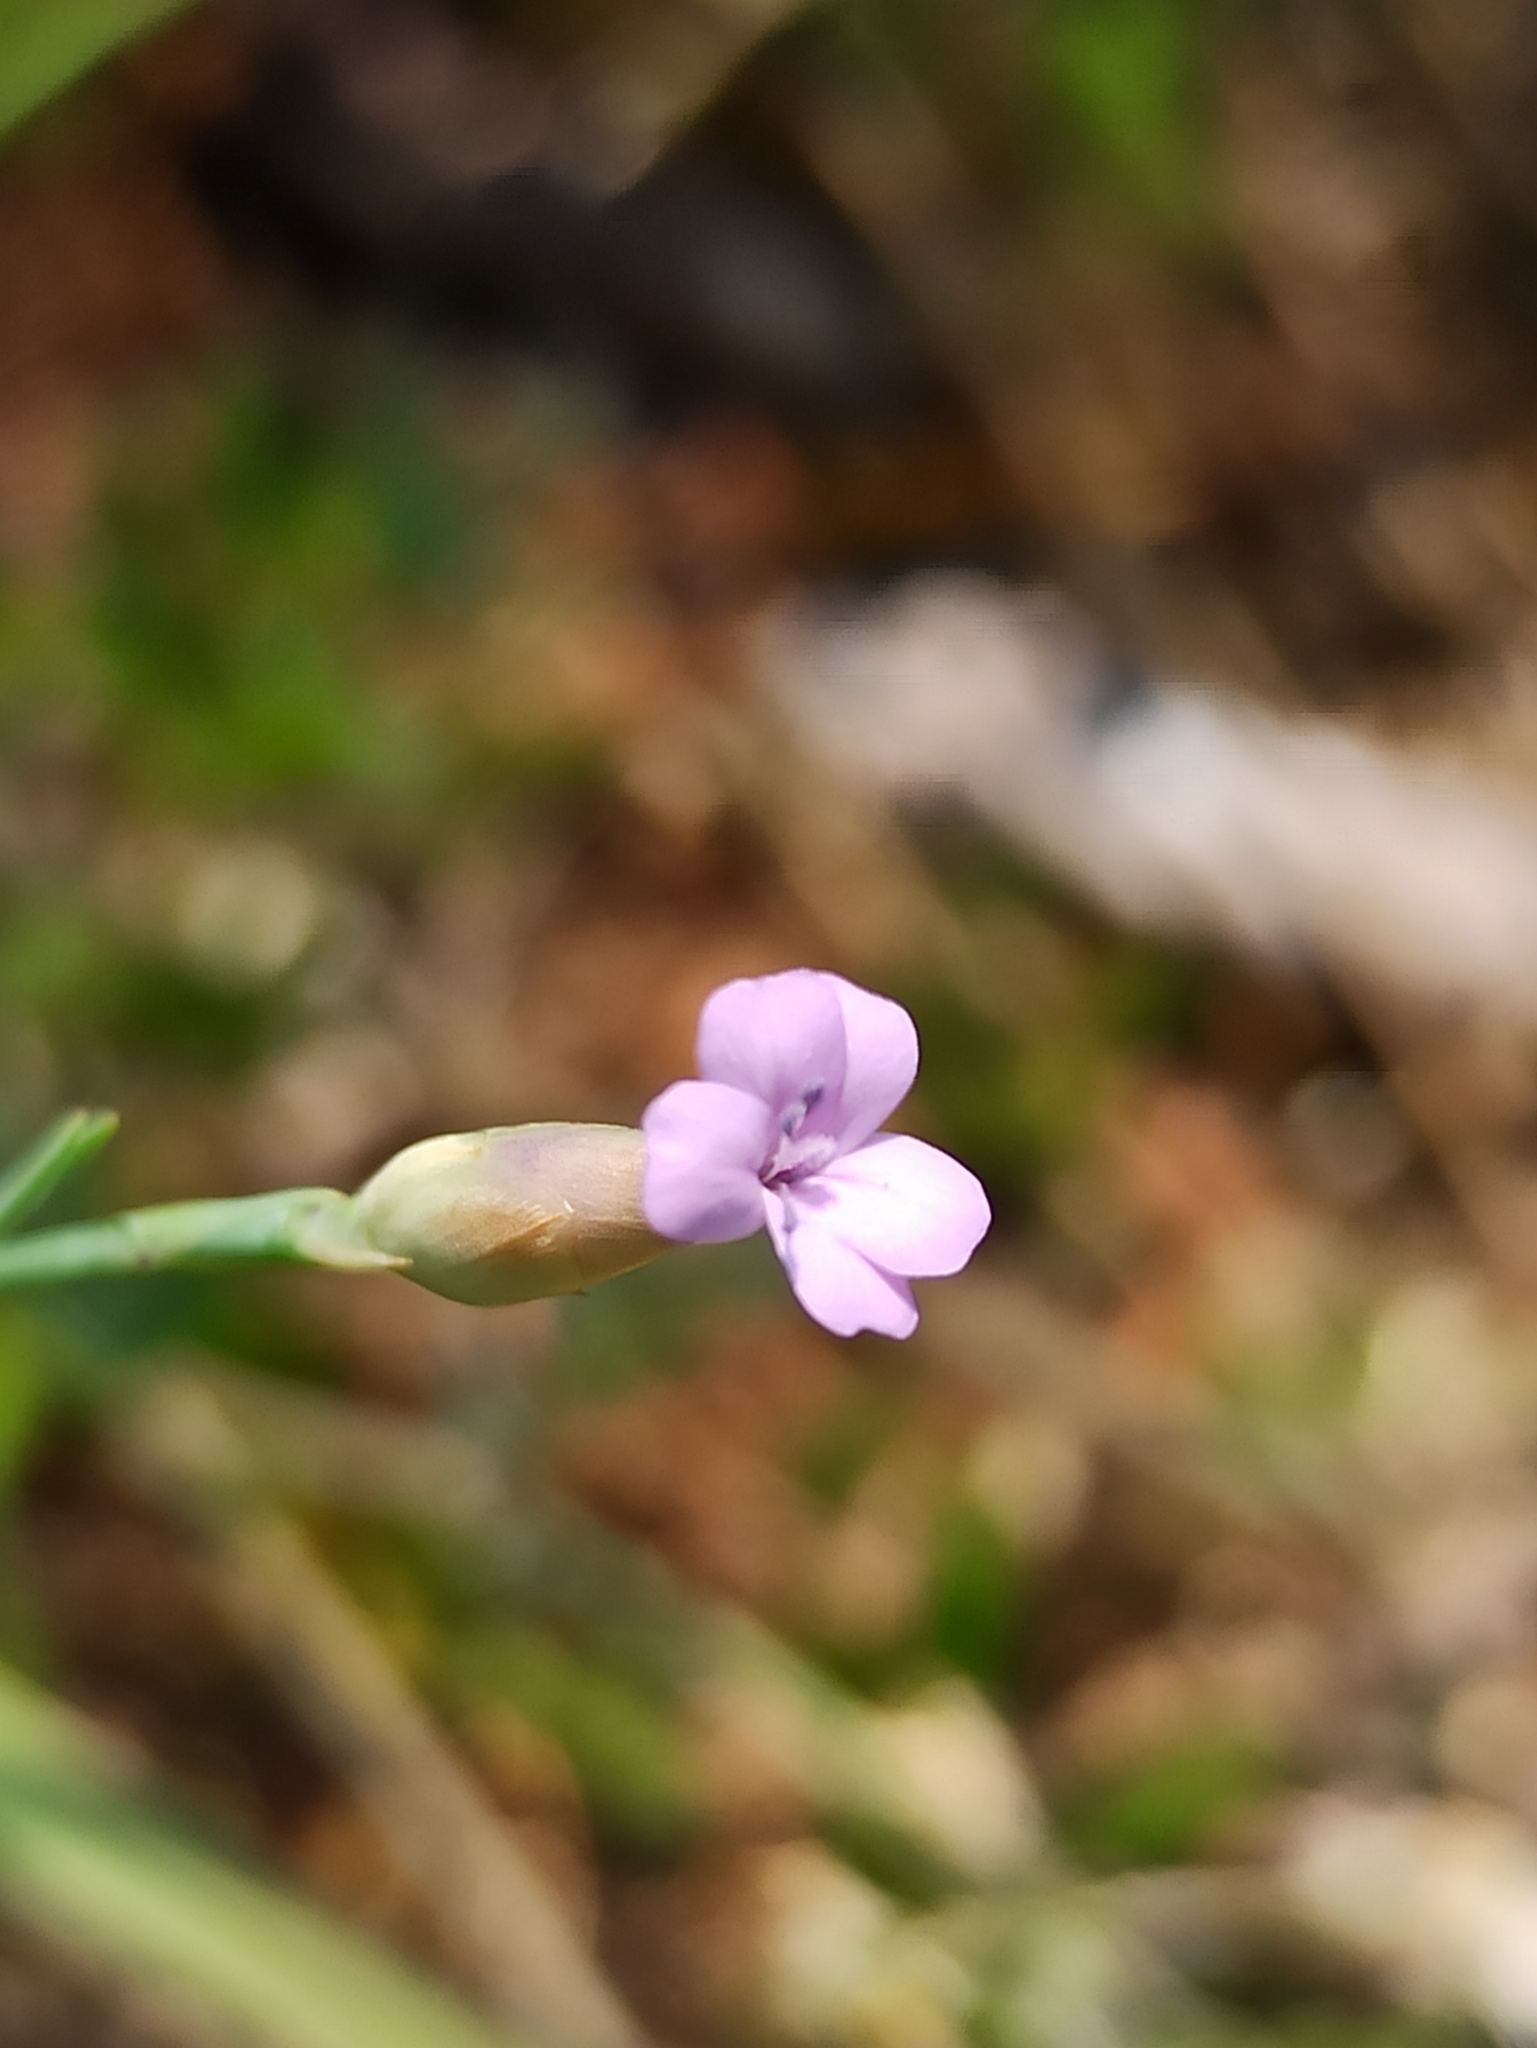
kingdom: Plantae
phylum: Tracheophyta
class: Magnoliopsida
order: Caryophyllales
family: Caryophyllaceae
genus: Petrorhagia
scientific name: Petrorhagia prolifera
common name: Proliferous pink
